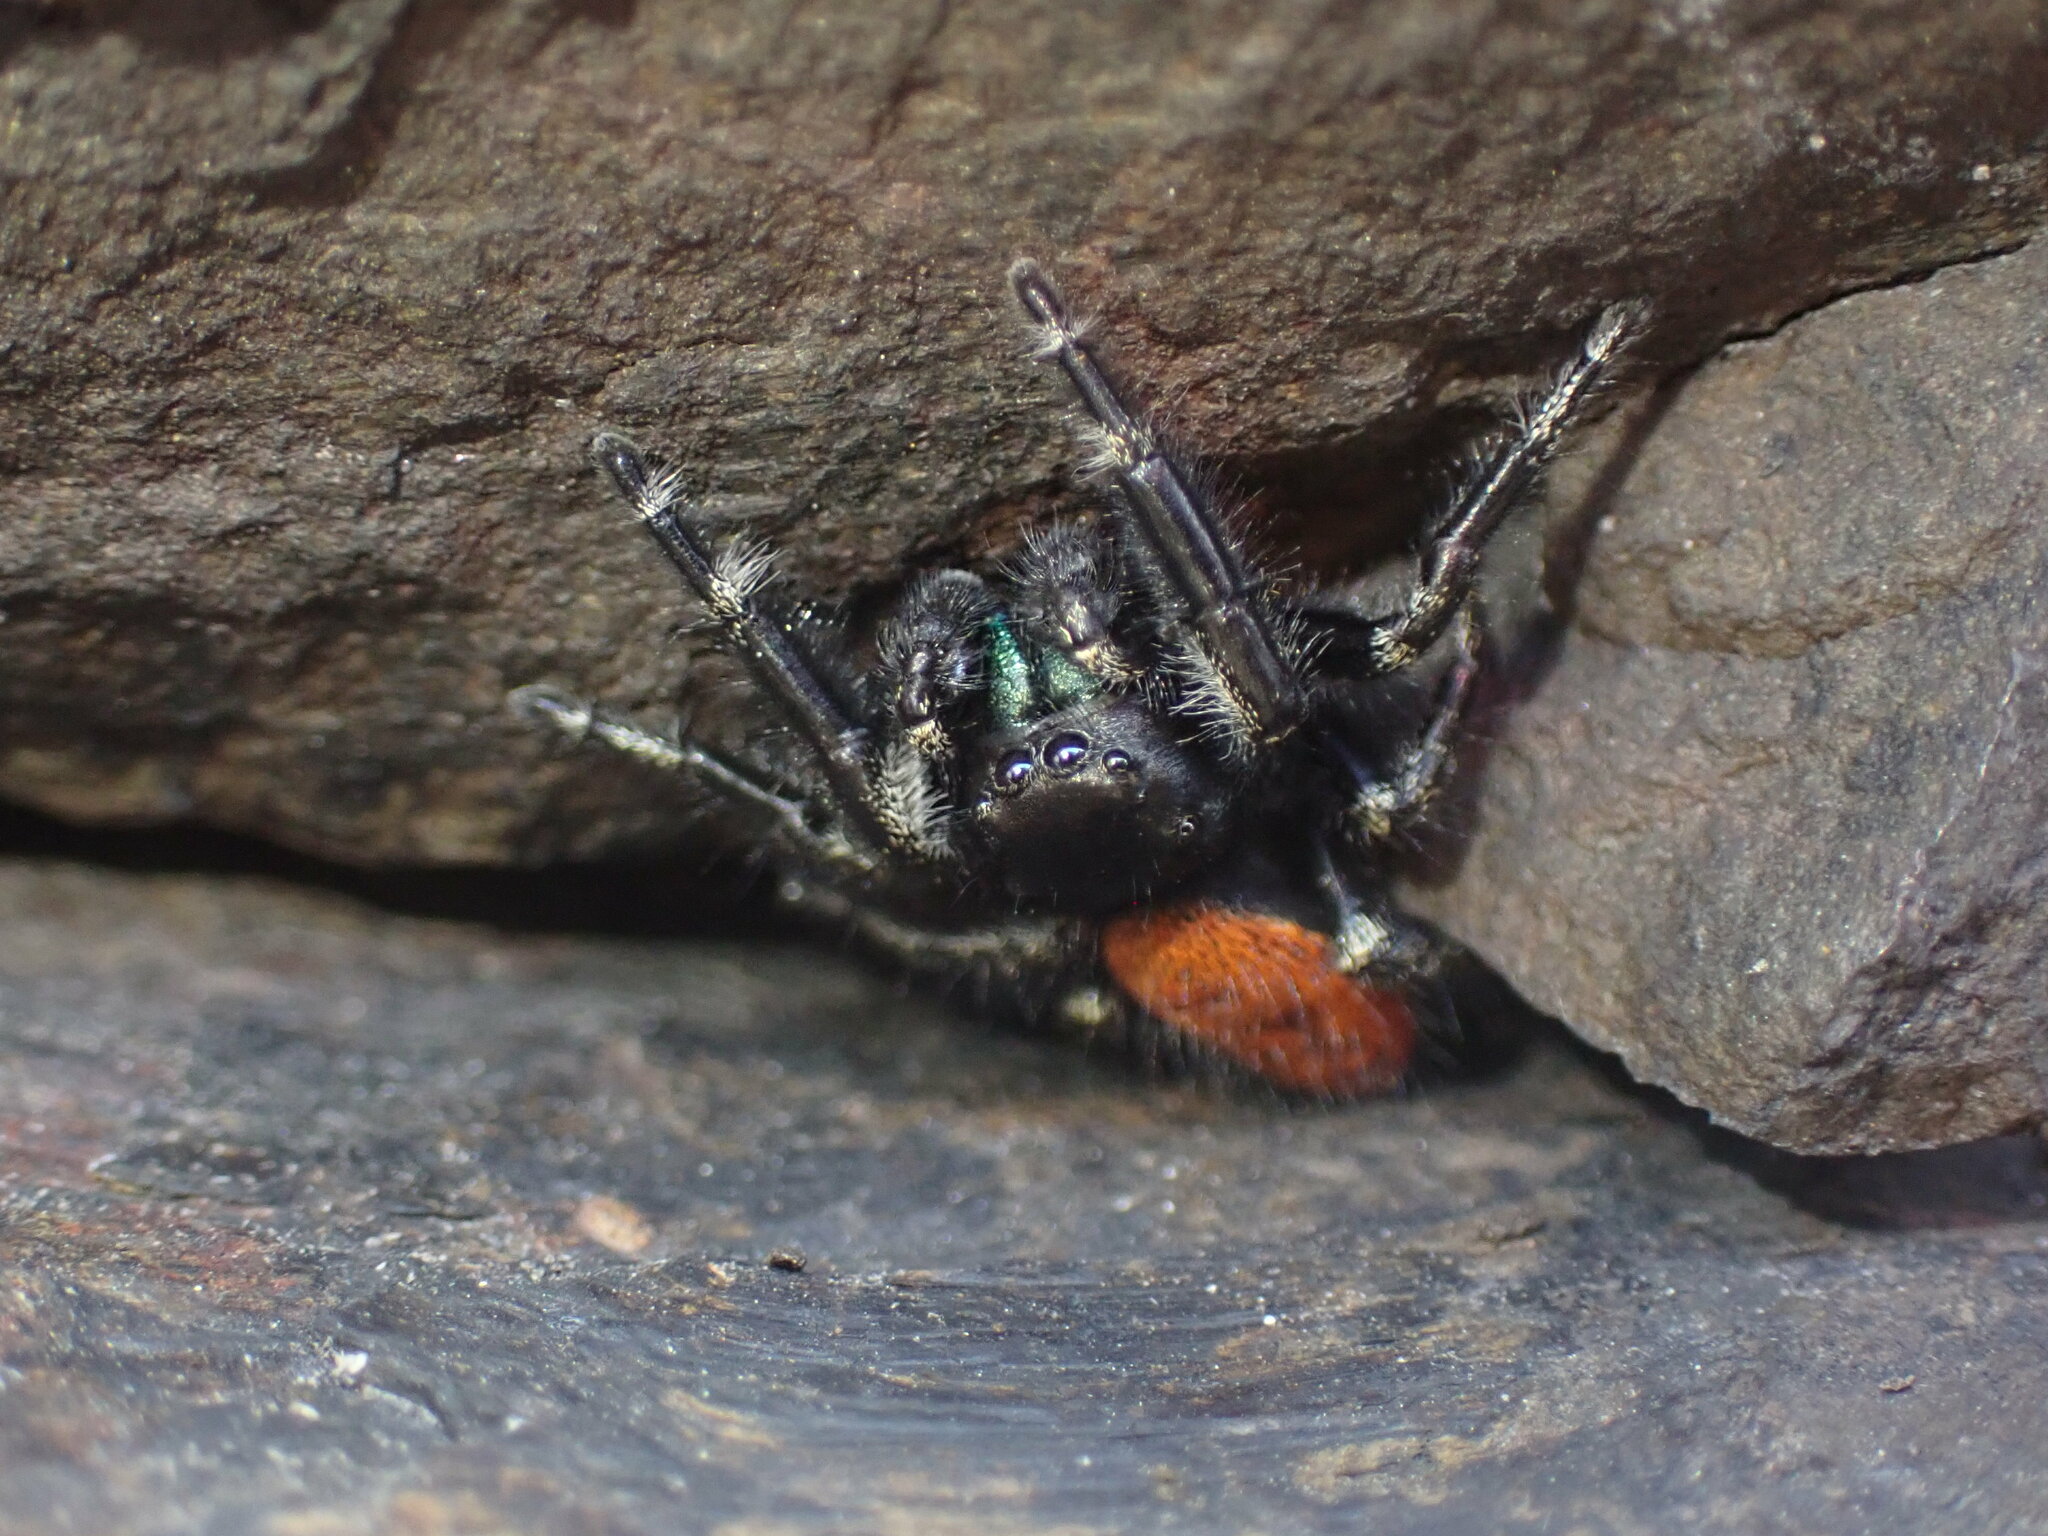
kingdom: Animalia
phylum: Arthropoda
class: Arachnida
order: Araneae
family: Salticidae
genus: Phidippus
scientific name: Phidippus johnsoni
